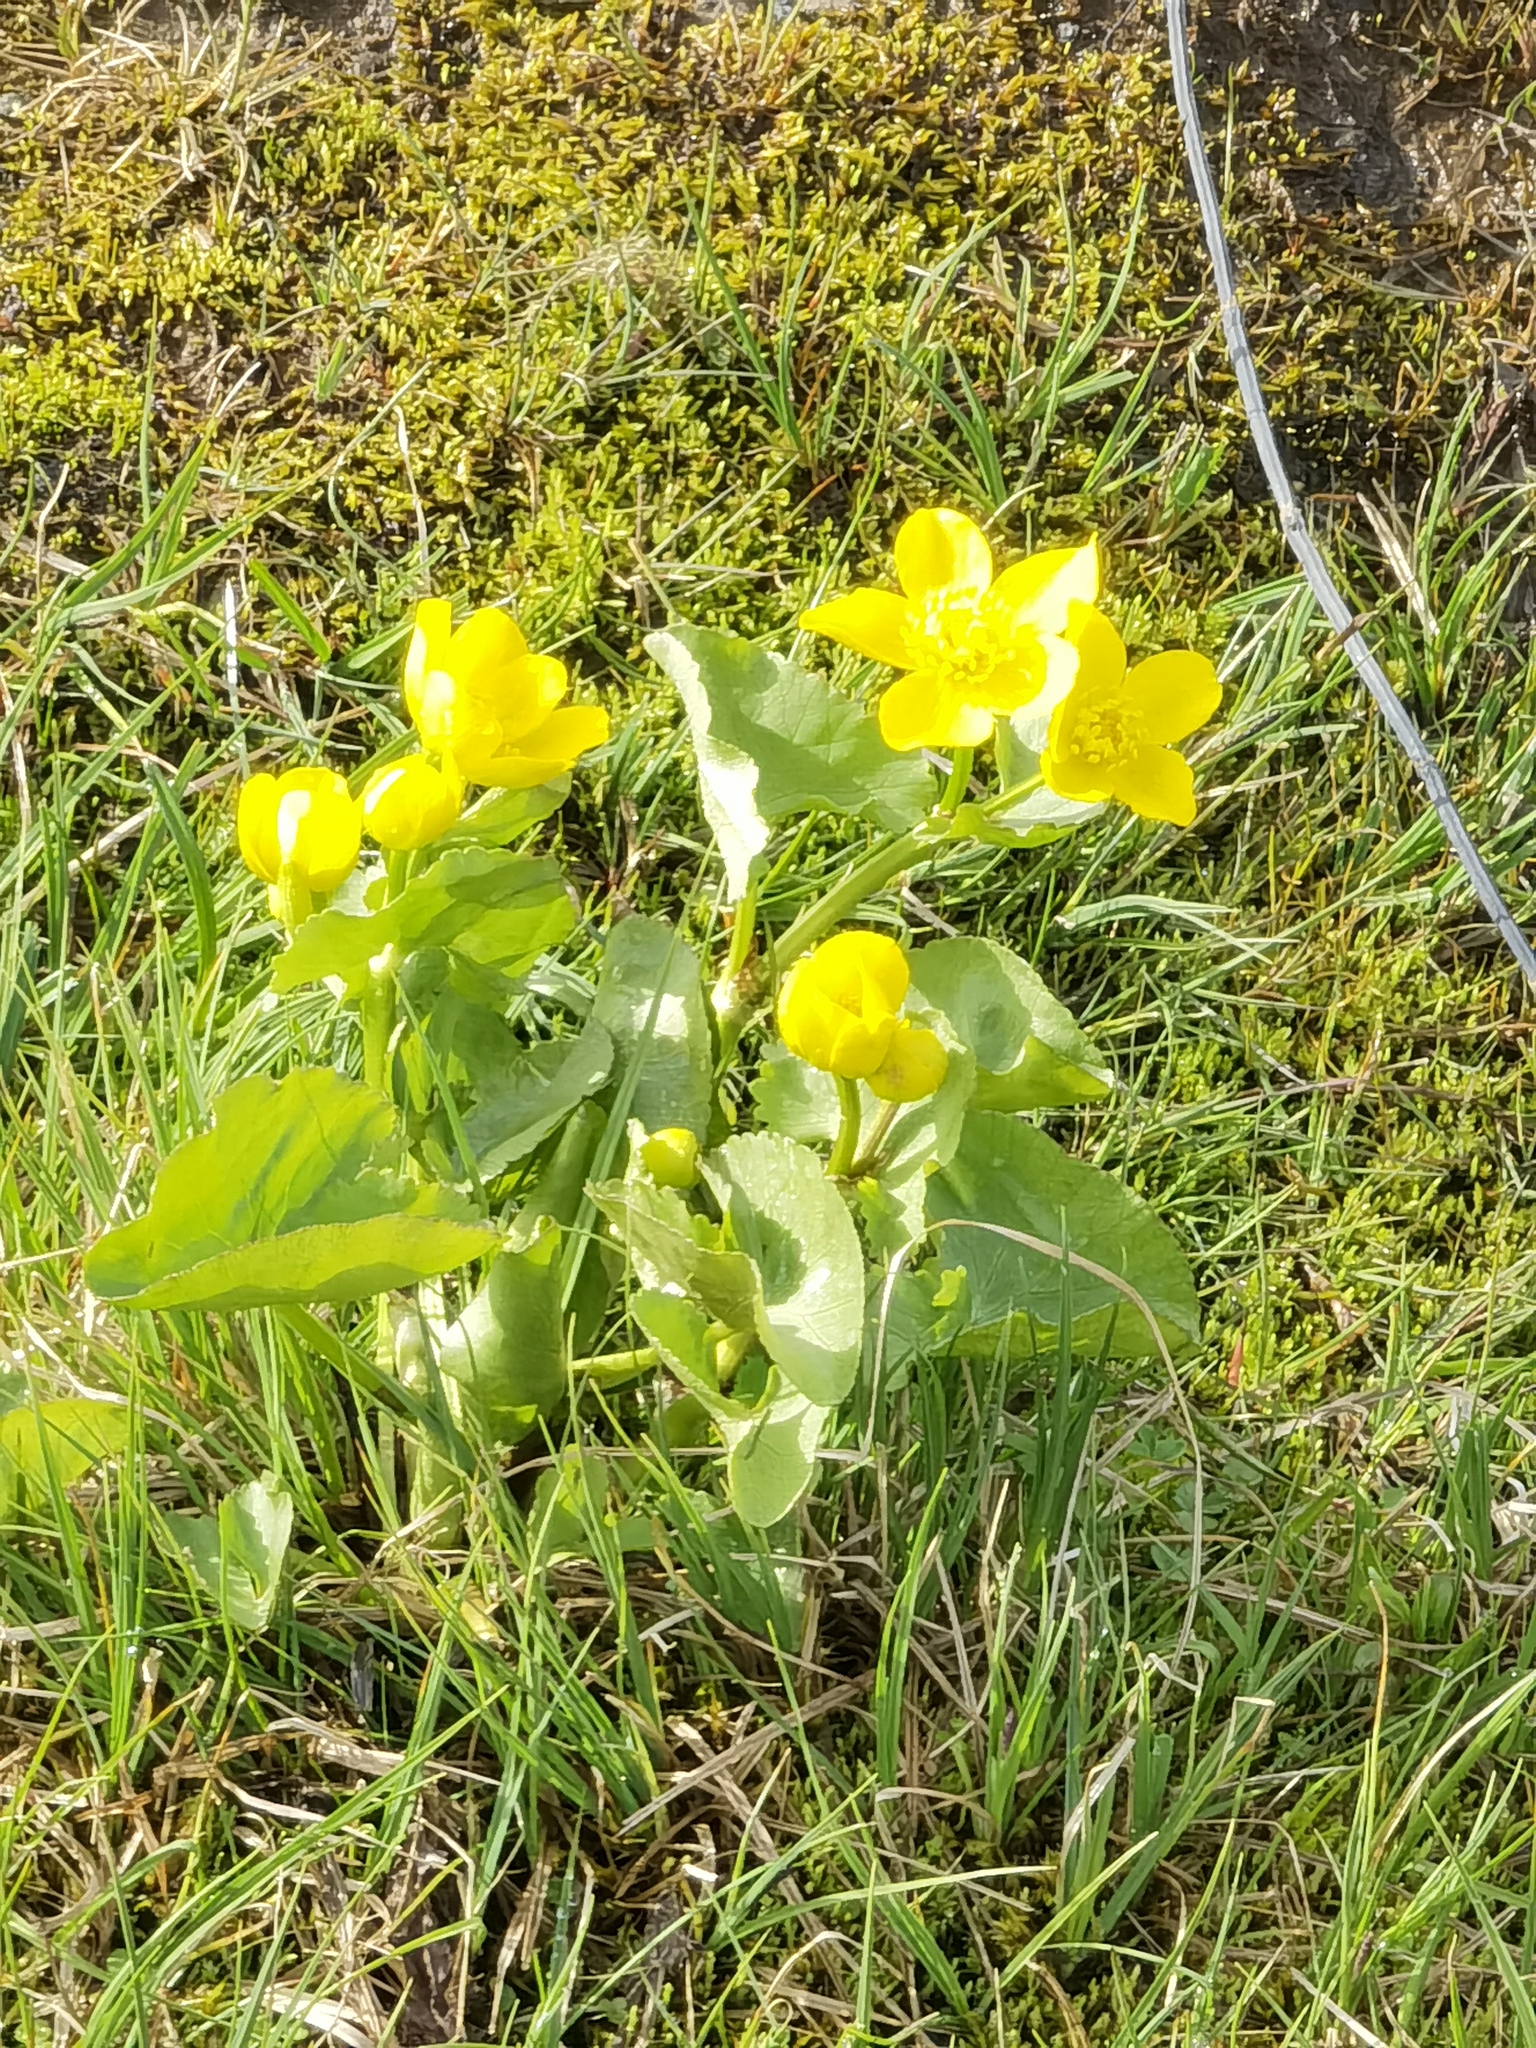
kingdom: Plantae
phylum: Tracheophyta
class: Magnoliopsida
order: Ranunculales
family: Ranunculaceae
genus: Caltha
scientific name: Caltha palustris
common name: Marsh marigold
